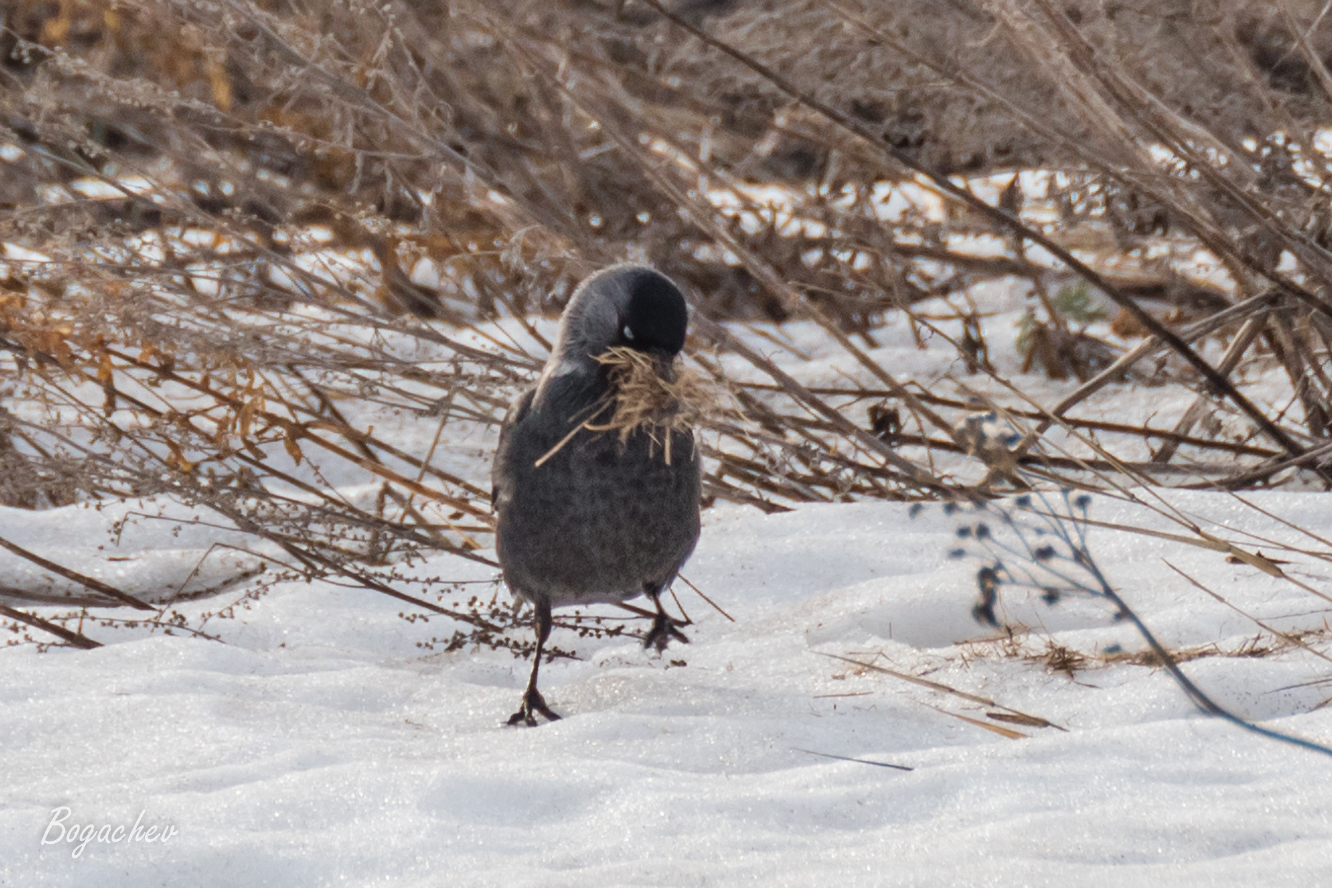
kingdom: Animalia
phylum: Chordata
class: Aves
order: Passeriformes
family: Corvidae
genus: Coloeus
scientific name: Coloeus monedula
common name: Western jackdaw
